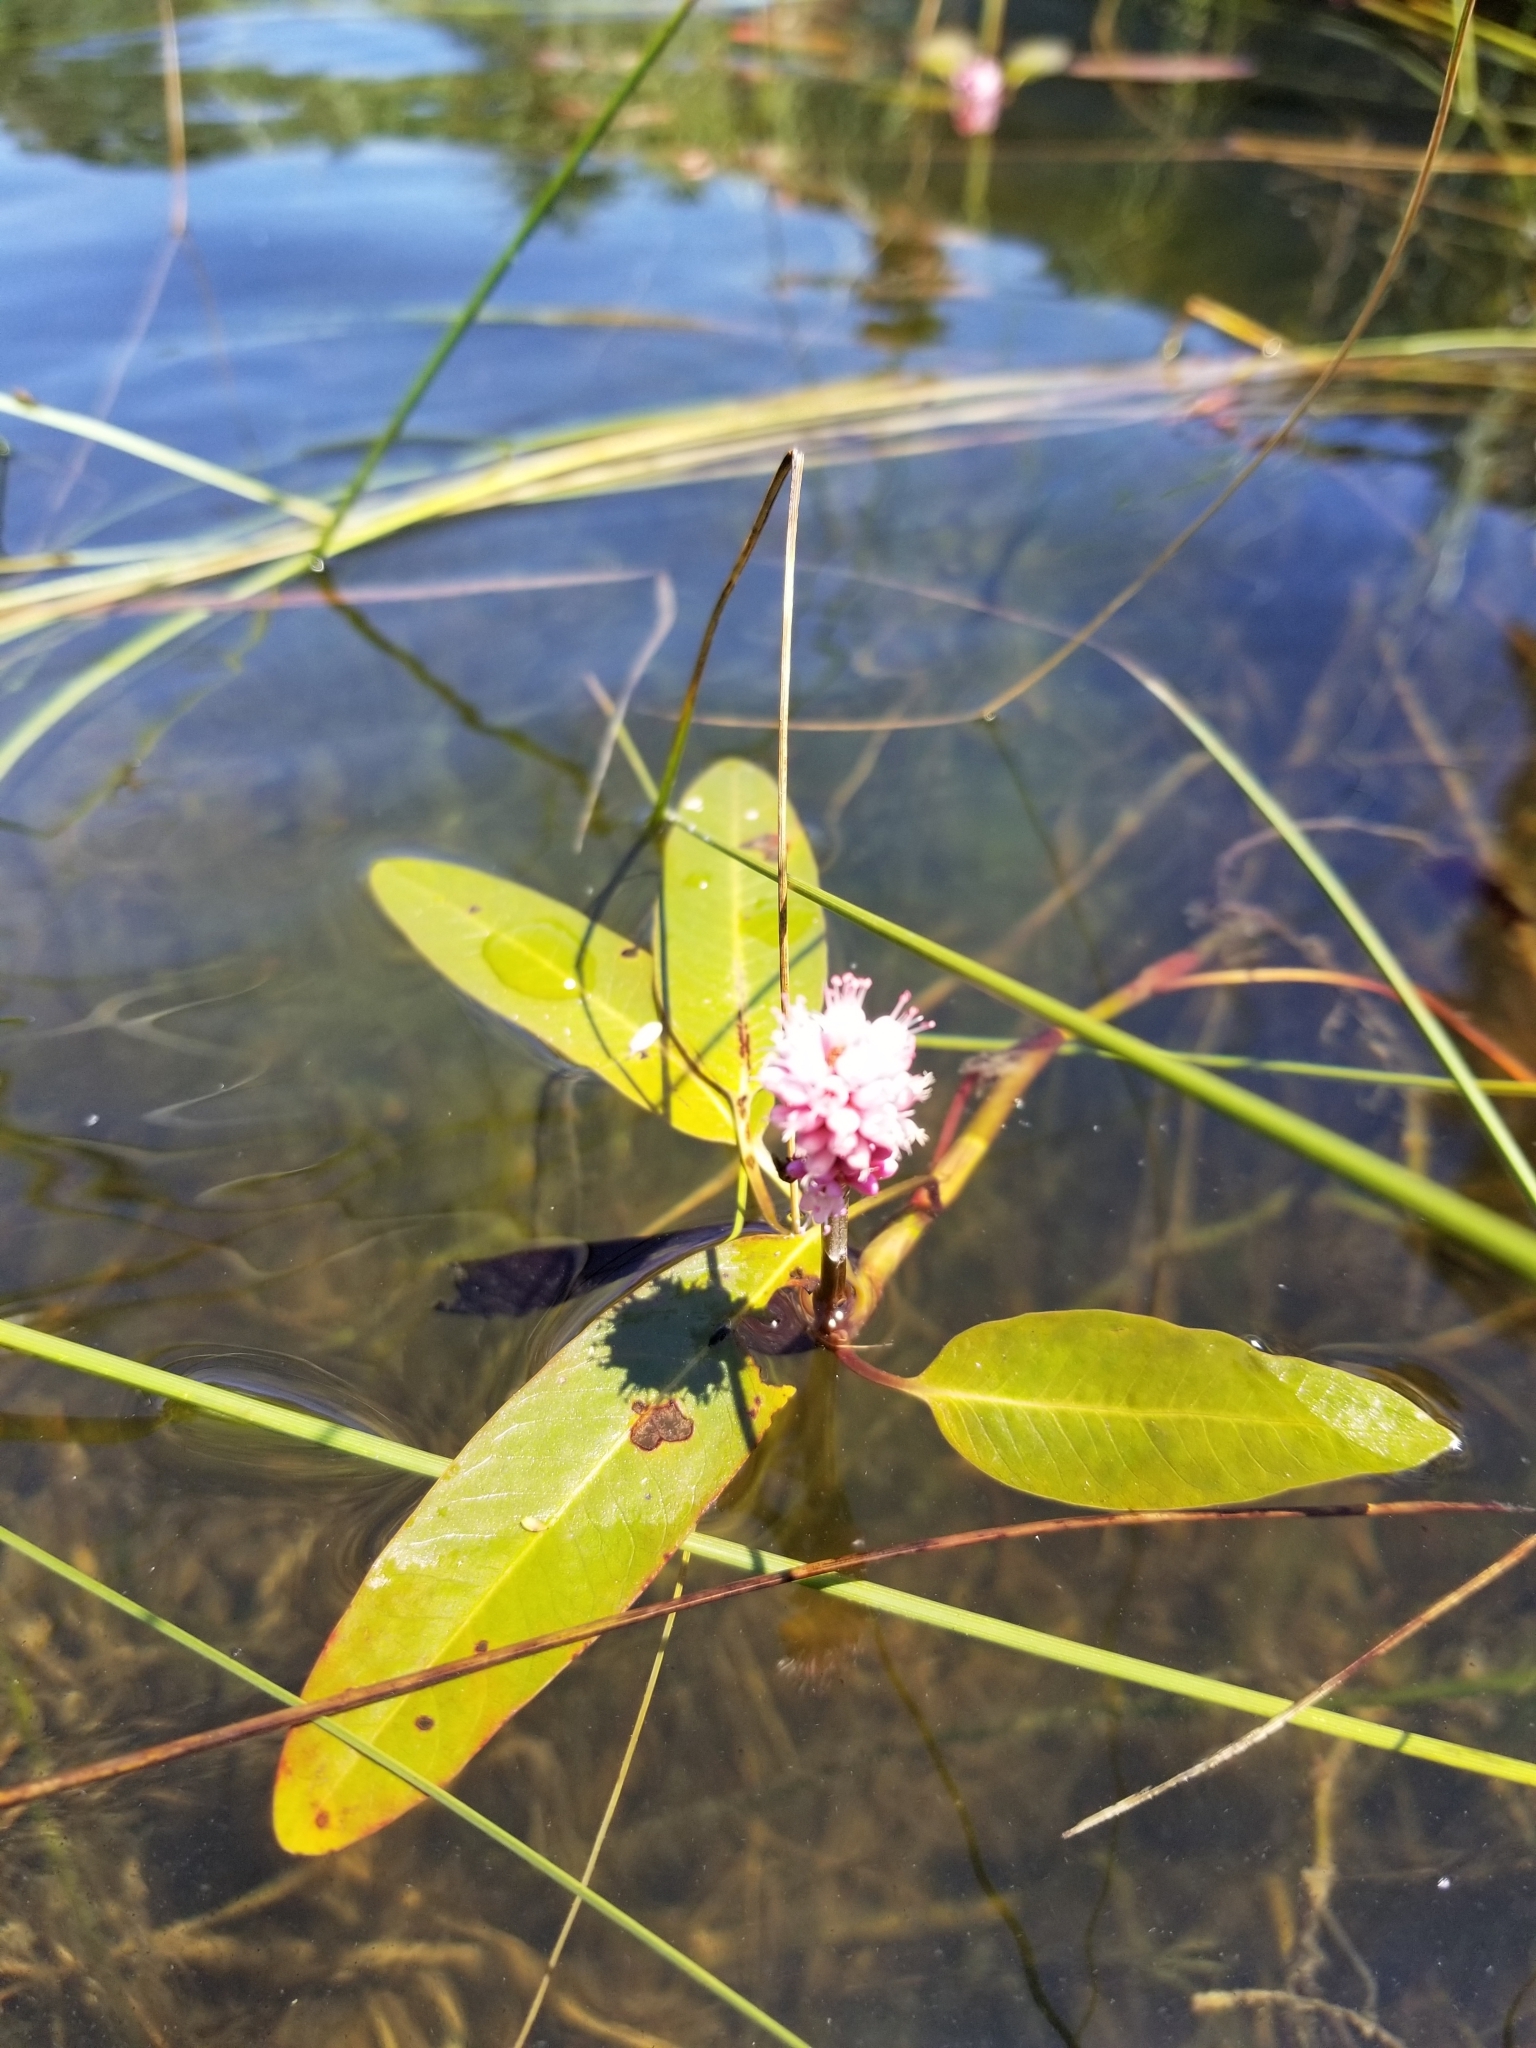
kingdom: Plantae
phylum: Tracheophyta
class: Magnoliopsida
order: Caryophyllales
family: Polygonaceae
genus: Persicaria
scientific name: Persicaria amphibia
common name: Amphibious bistort
